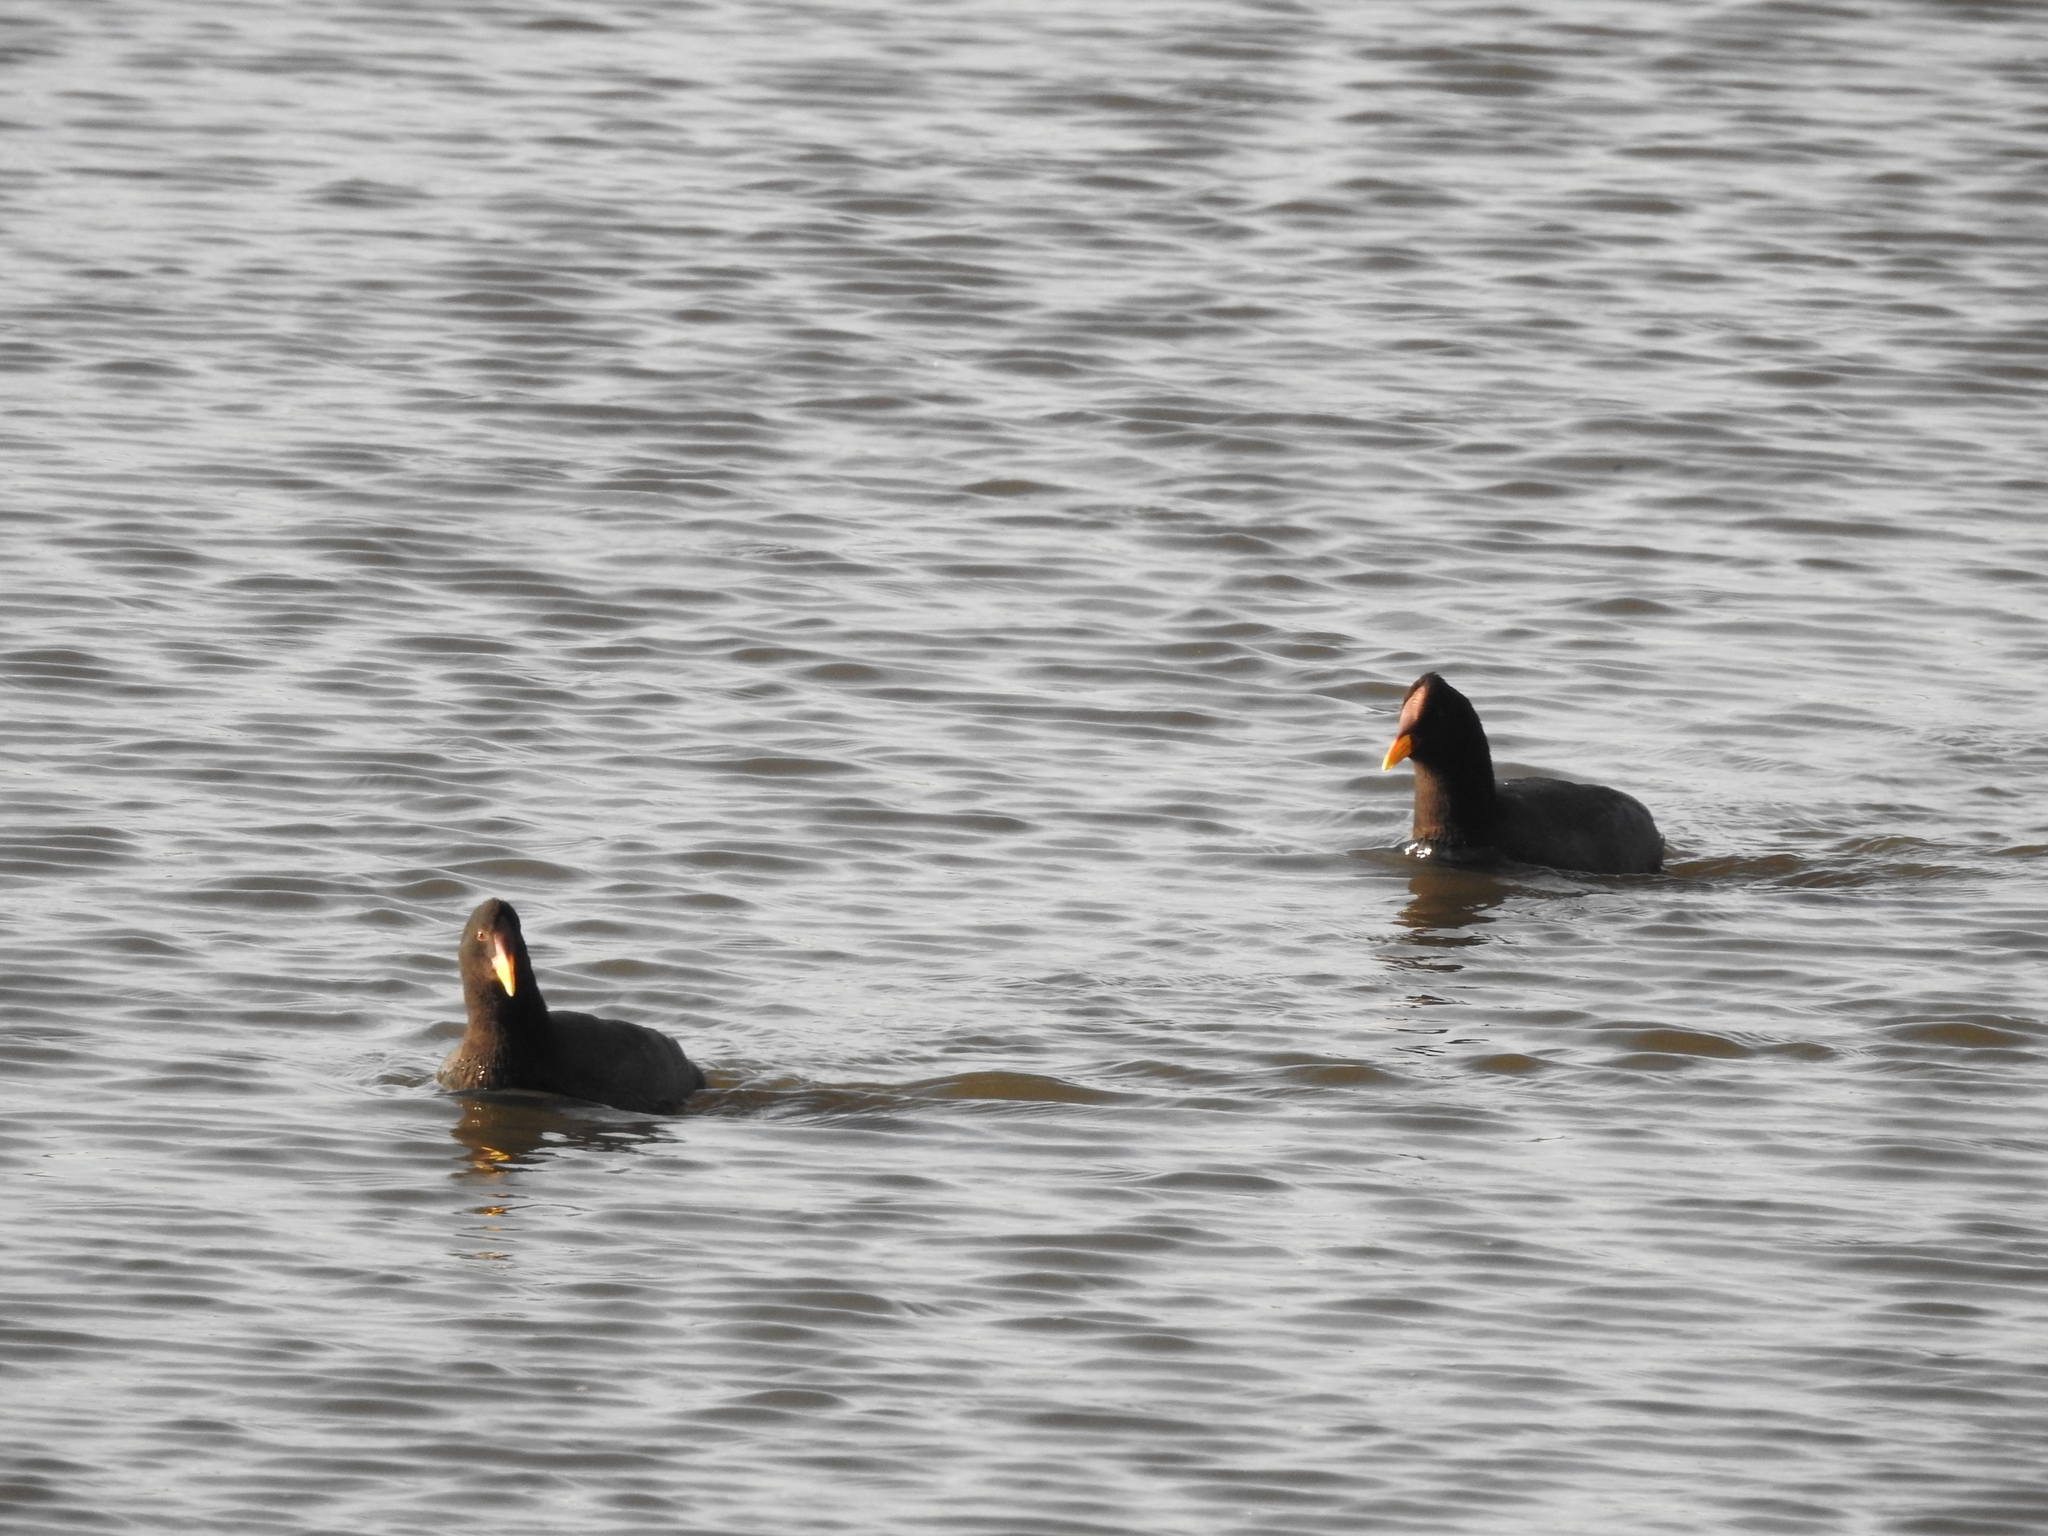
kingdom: Animalia
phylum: Chordata
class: Aves
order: Gruiformes
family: Rallidae
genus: Fulica
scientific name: Fulica rufifrons
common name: Red-fronted coot
